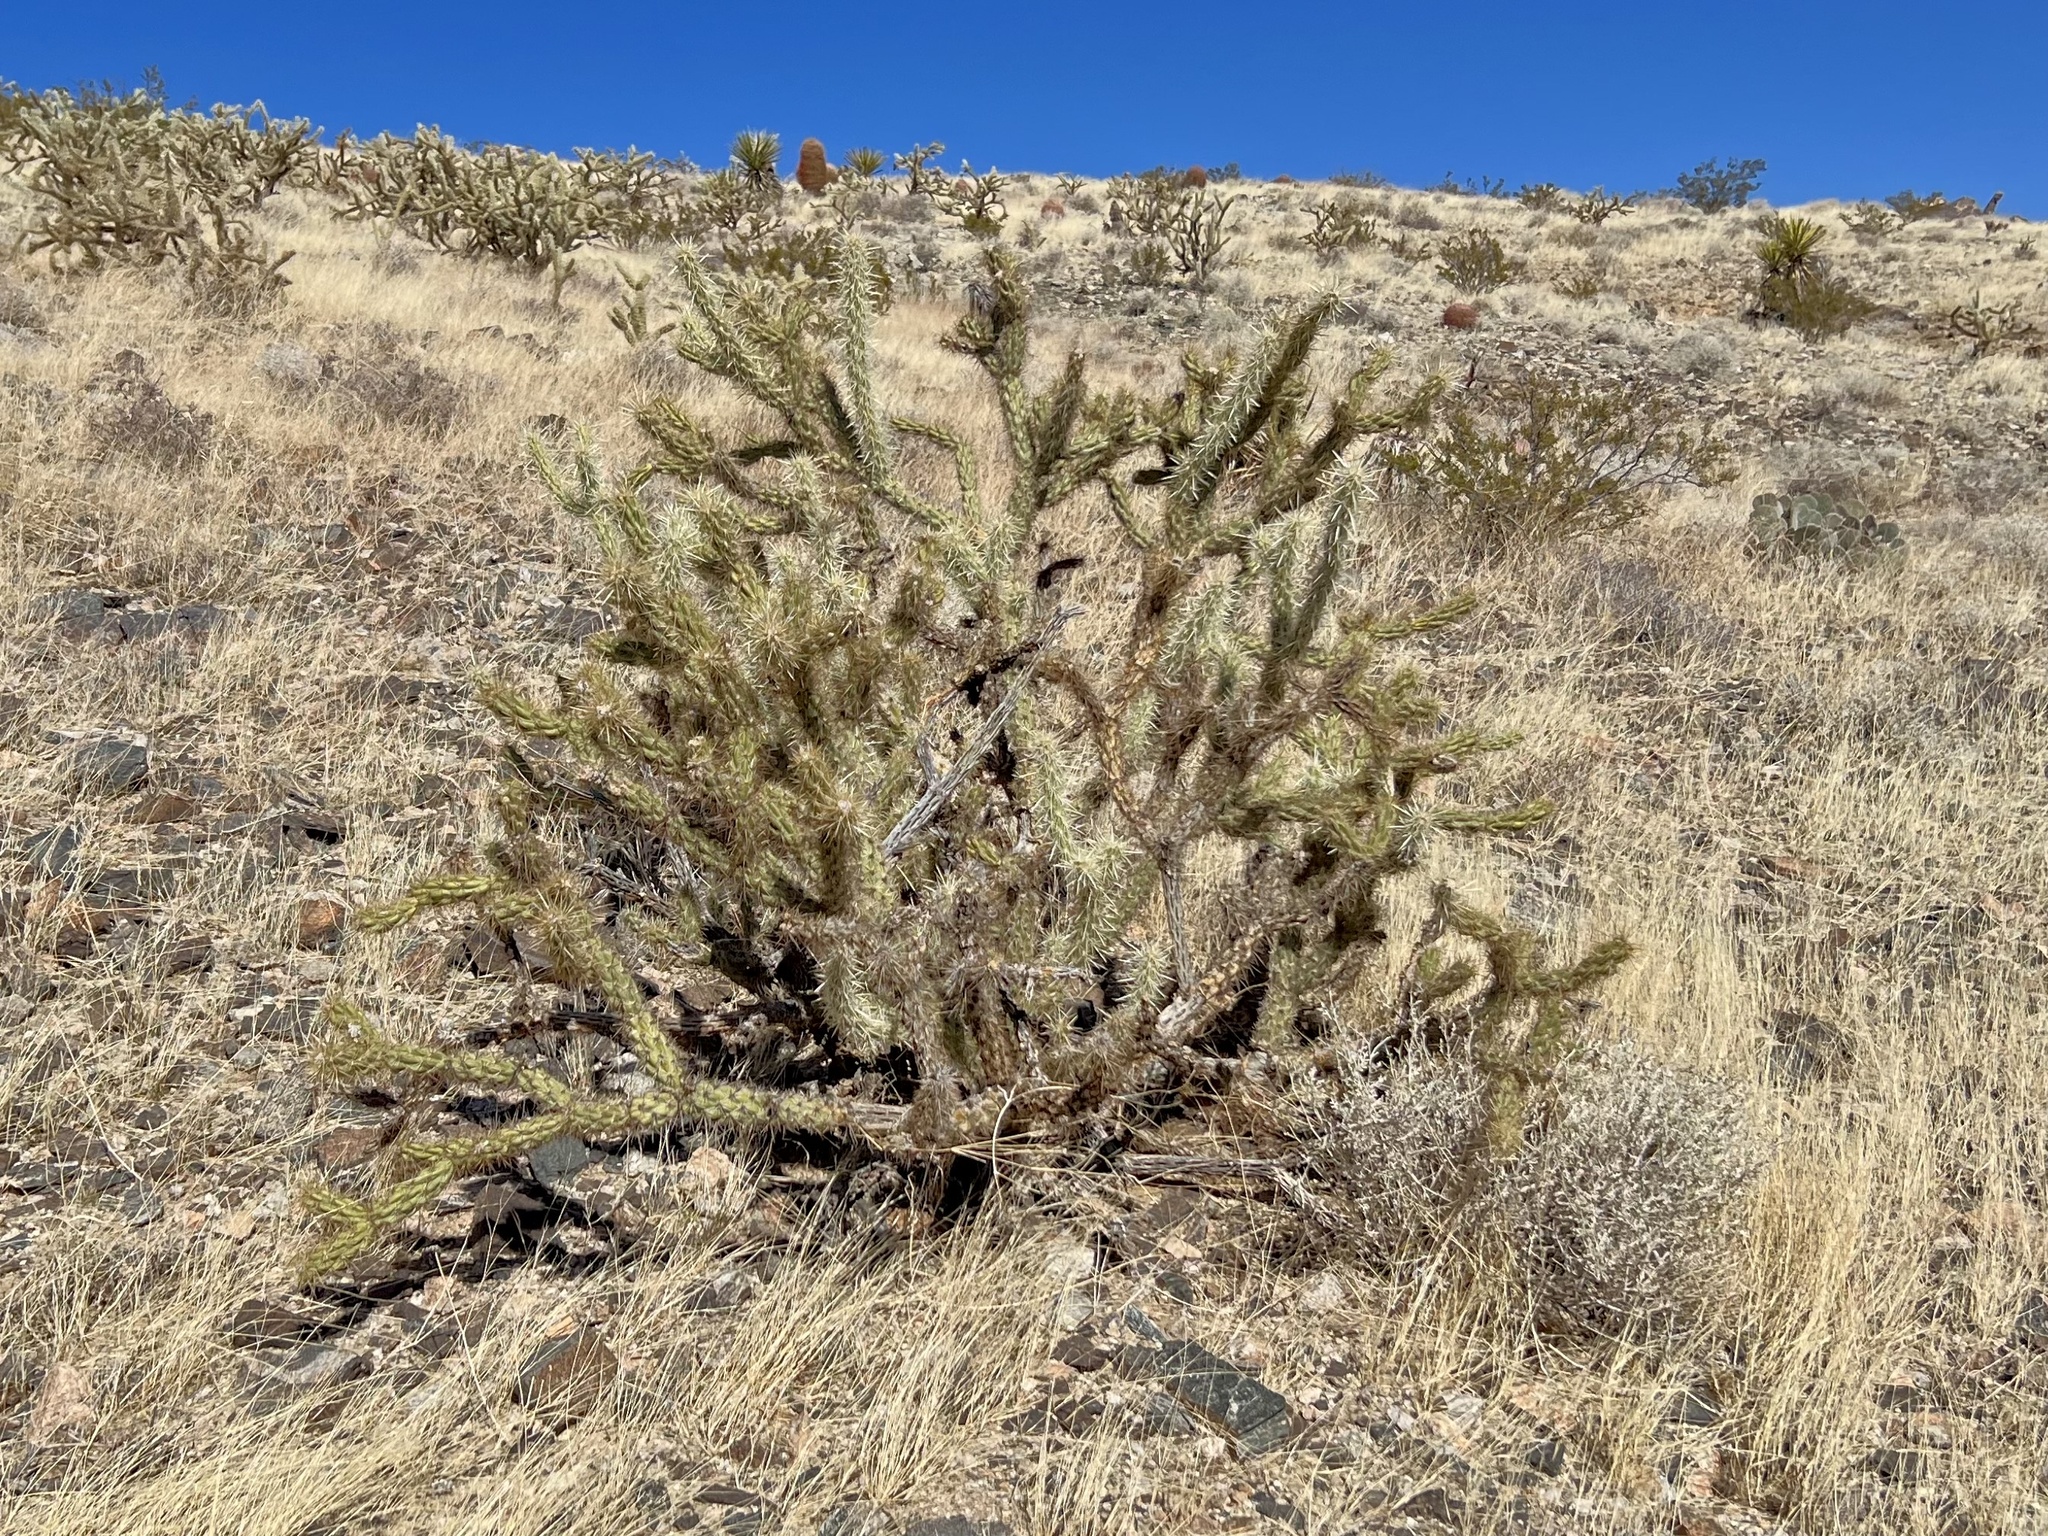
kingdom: Plantae
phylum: Tracheophyta
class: Magnoliopsida
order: Caryophyllales
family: Cactaceae
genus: Cylindropuntia
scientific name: Cylindropuntia acanthocarpa
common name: Buckhorn cholla
